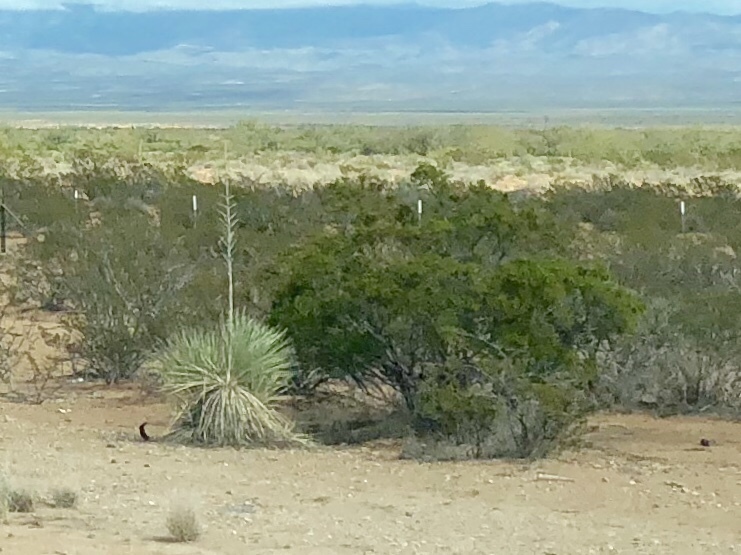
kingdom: Plantae
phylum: Tracheophyta
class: Magnoliopsida
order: Zygophyllales
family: Zygophyllaceae
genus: Larrea
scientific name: Larrea tridentata
